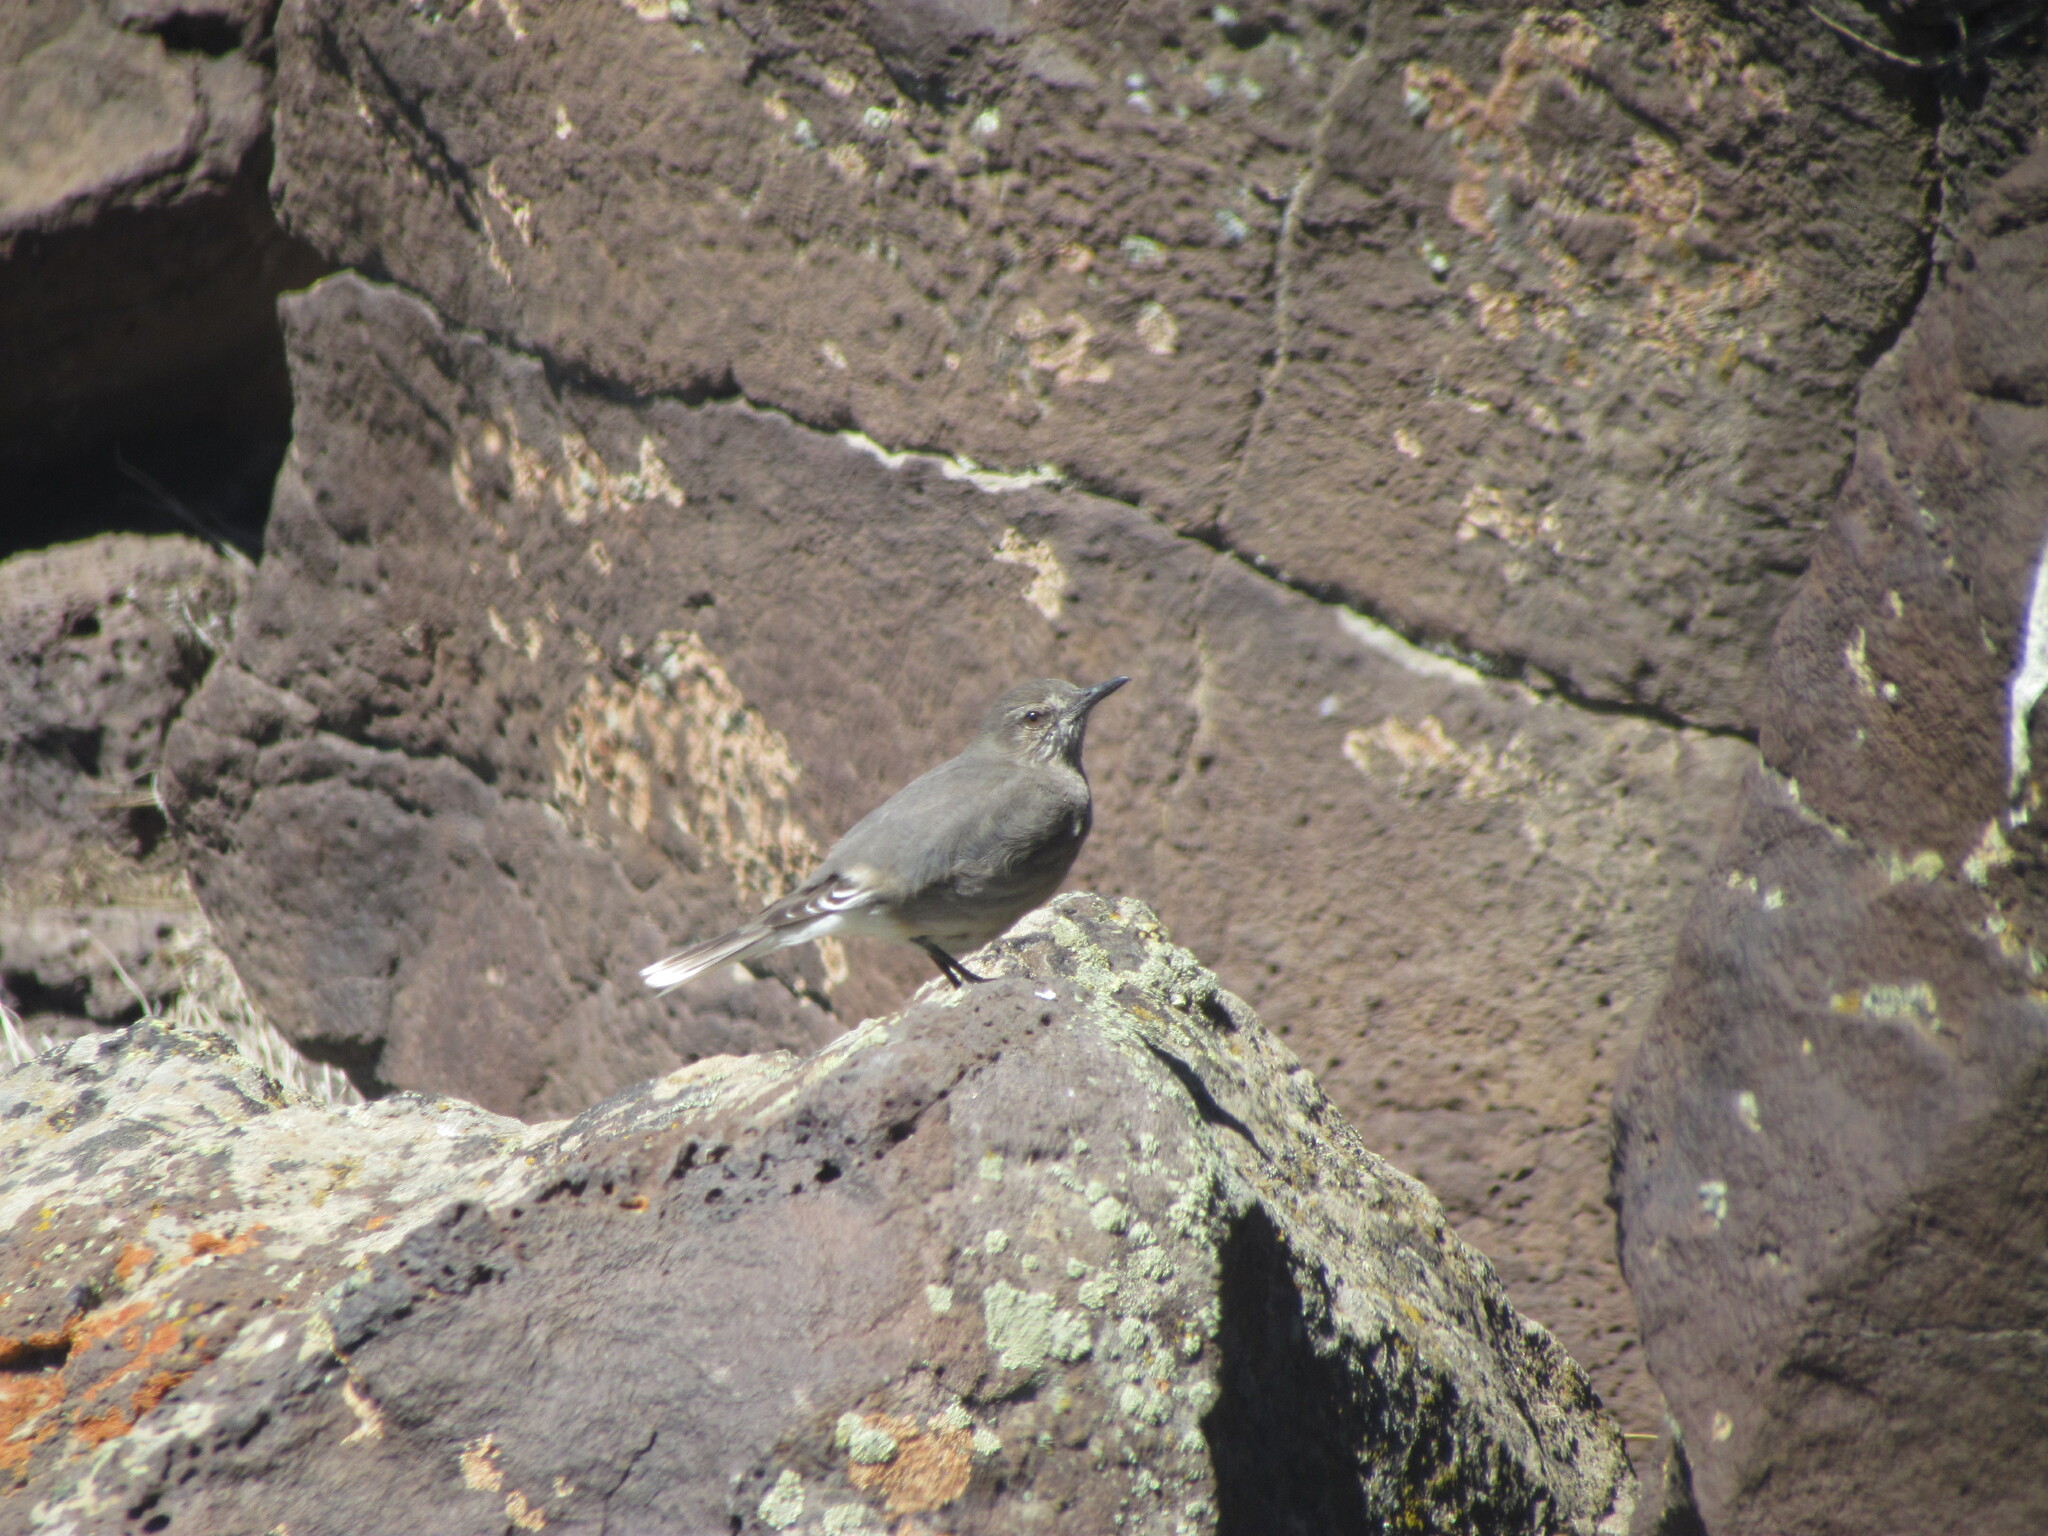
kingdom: Animalia
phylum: Chordata
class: Aves
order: Passeriformes
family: Tyrannidae
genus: Agriornis
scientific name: Agriornis montanus
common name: Black-billed shrike-tyrant
